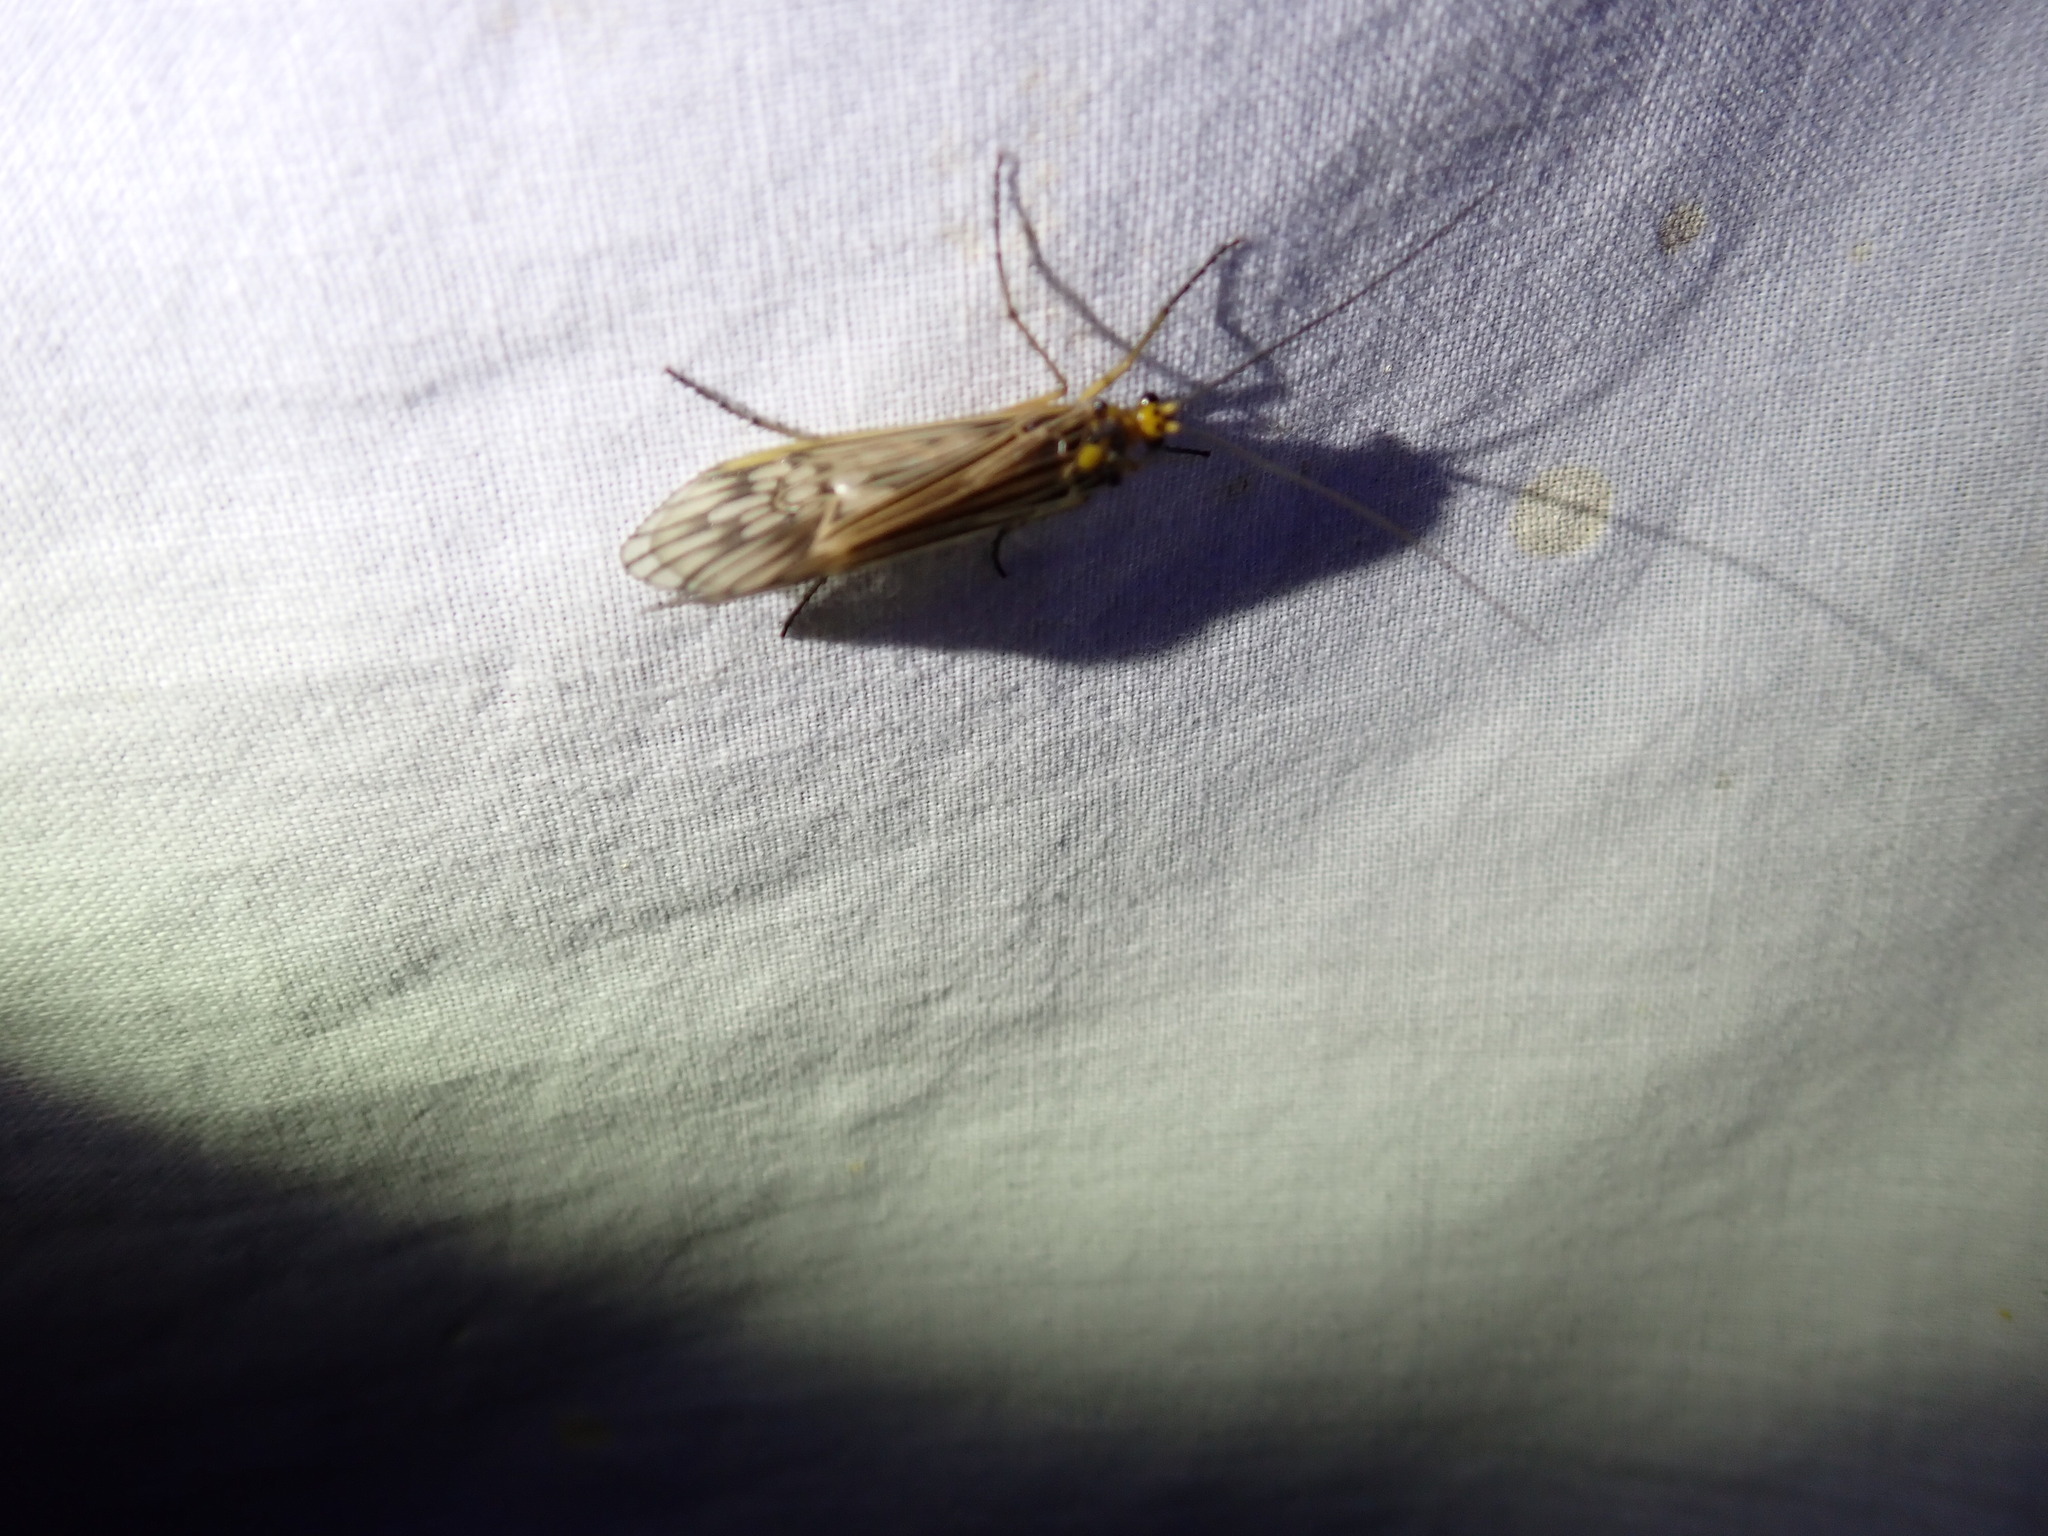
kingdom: Animalia
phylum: Arthropoda
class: Insecta
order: Trichoptera
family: Limnephilidae
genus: Hydatophylax
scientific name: Hydatophylax argus
